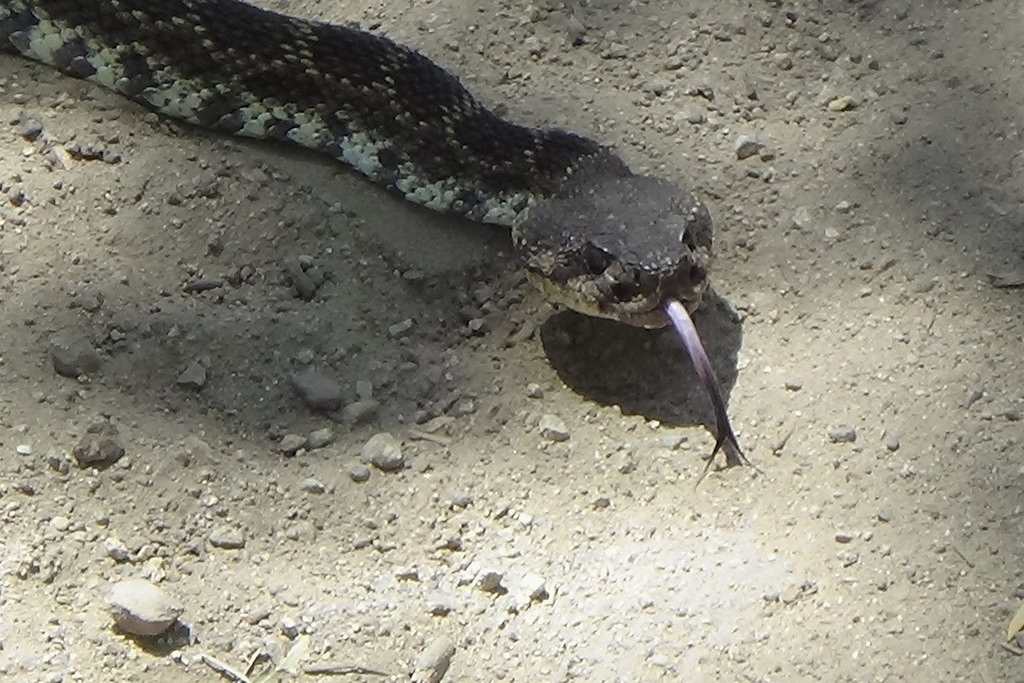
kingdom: Animalia
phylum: Chordata
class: Squamata
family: Viperidae
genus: Crotalus
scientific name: Crotalus oreganus
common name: Abyssus
